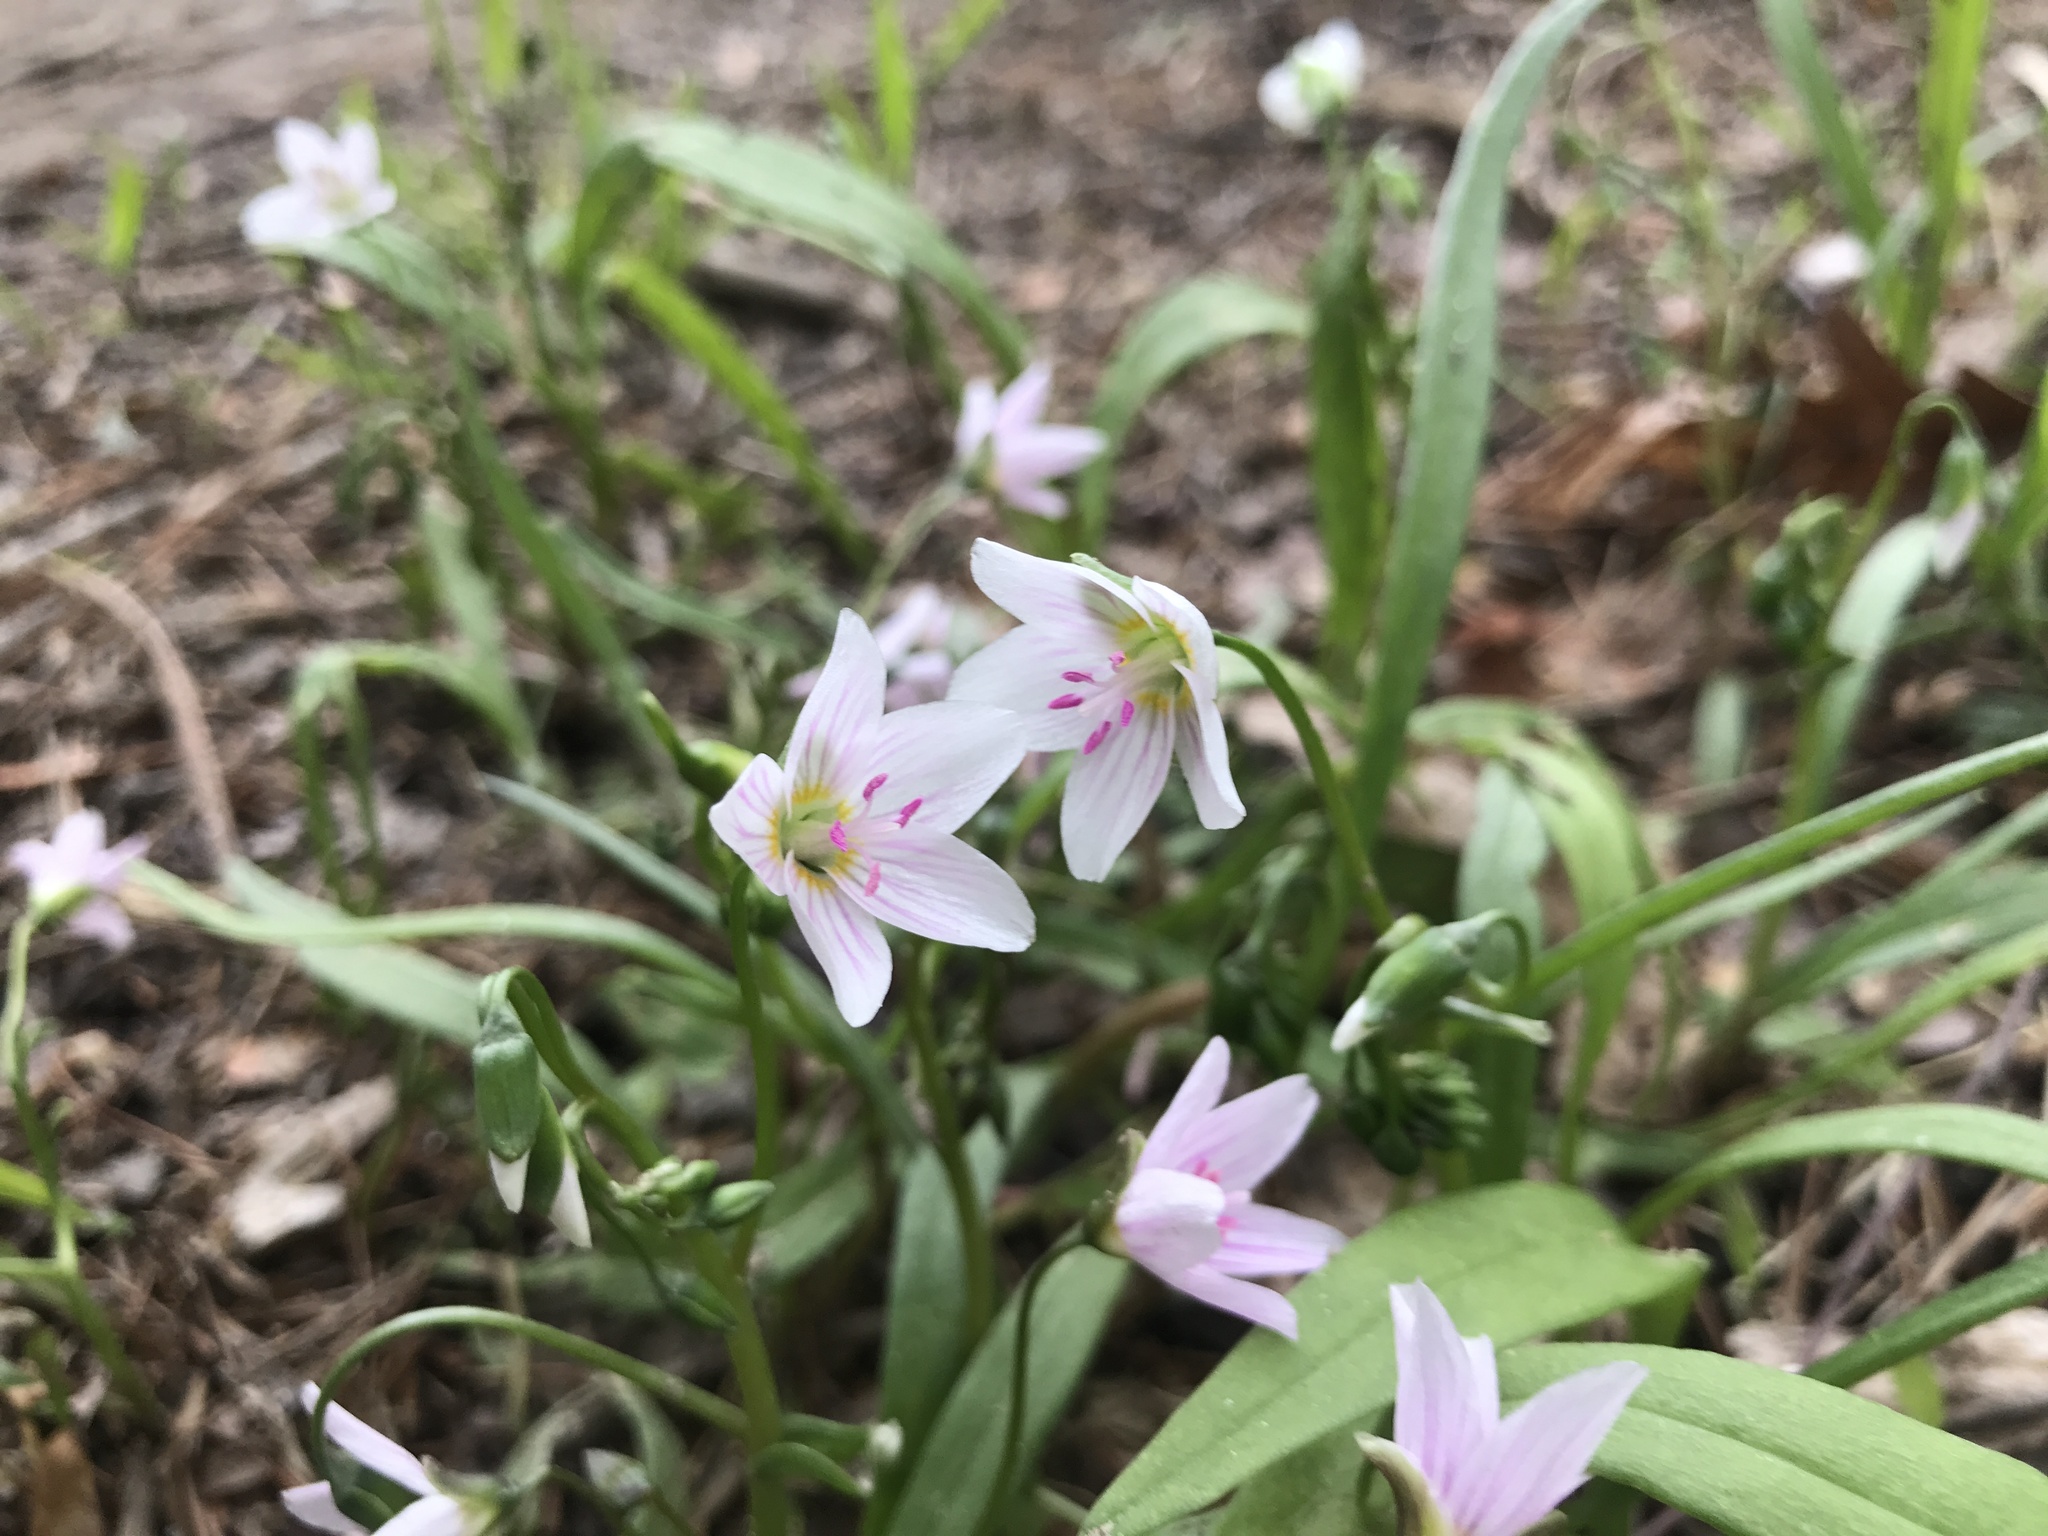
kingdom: Plantae
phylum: Tracheophyta
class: Magnoliopsida
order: Caryophyllales
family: Montiaceae
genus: Claytonia
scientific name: Claytonia virginica
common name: Virginia springbeauty
